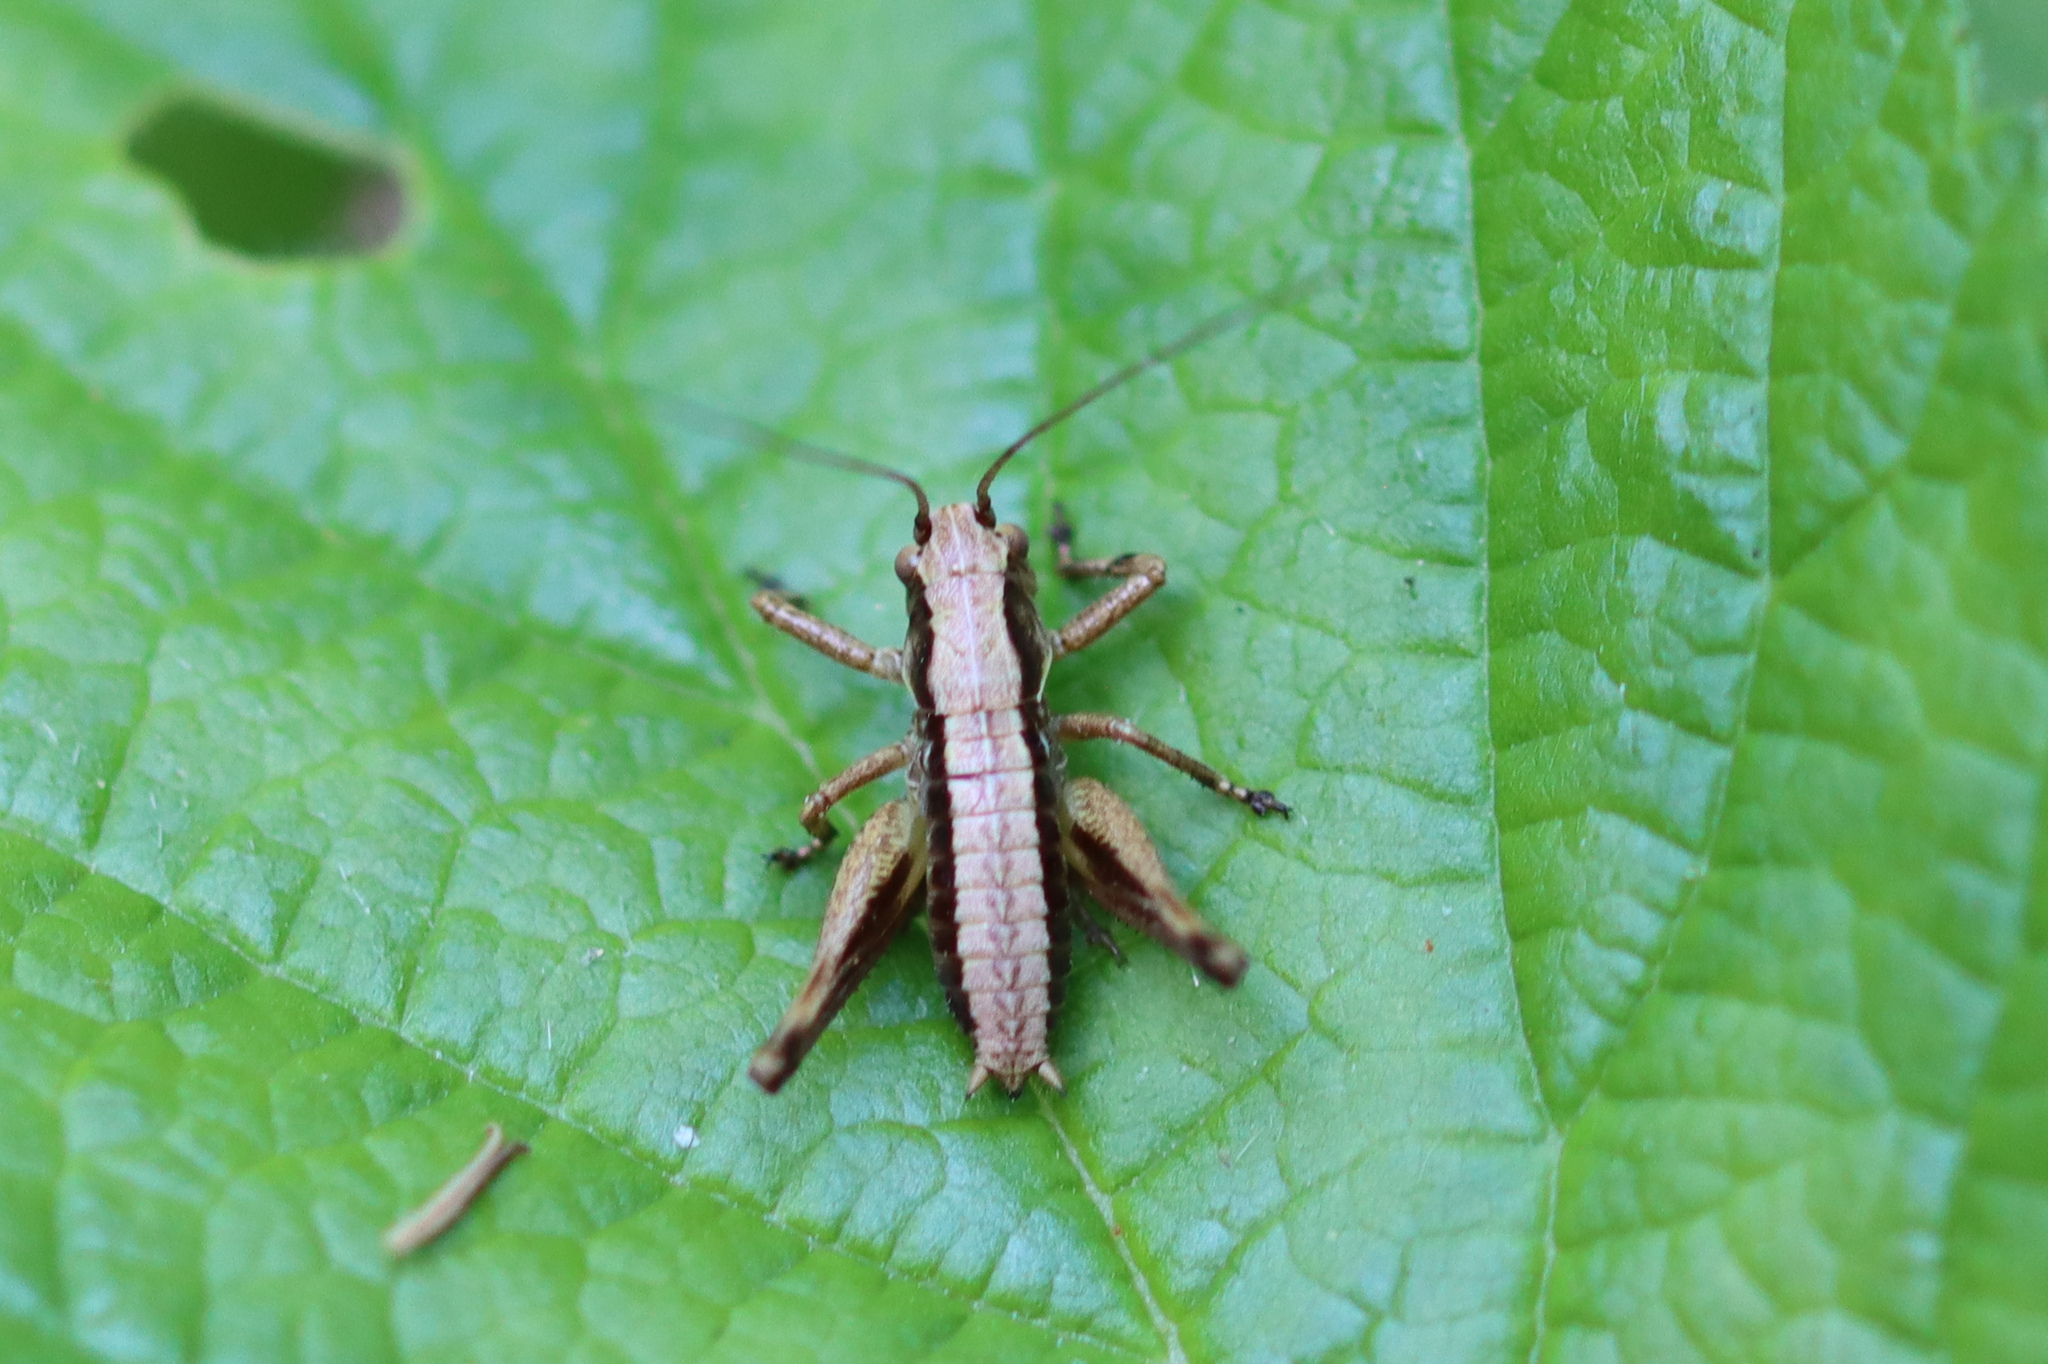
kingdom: Animalia
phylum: Arthropoda
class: Insecta
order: Orthoptera
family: Tettigoniidae
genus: Pholidoptera
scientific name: Pholidoptera griseoaptera
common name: Dark bush-cricket
